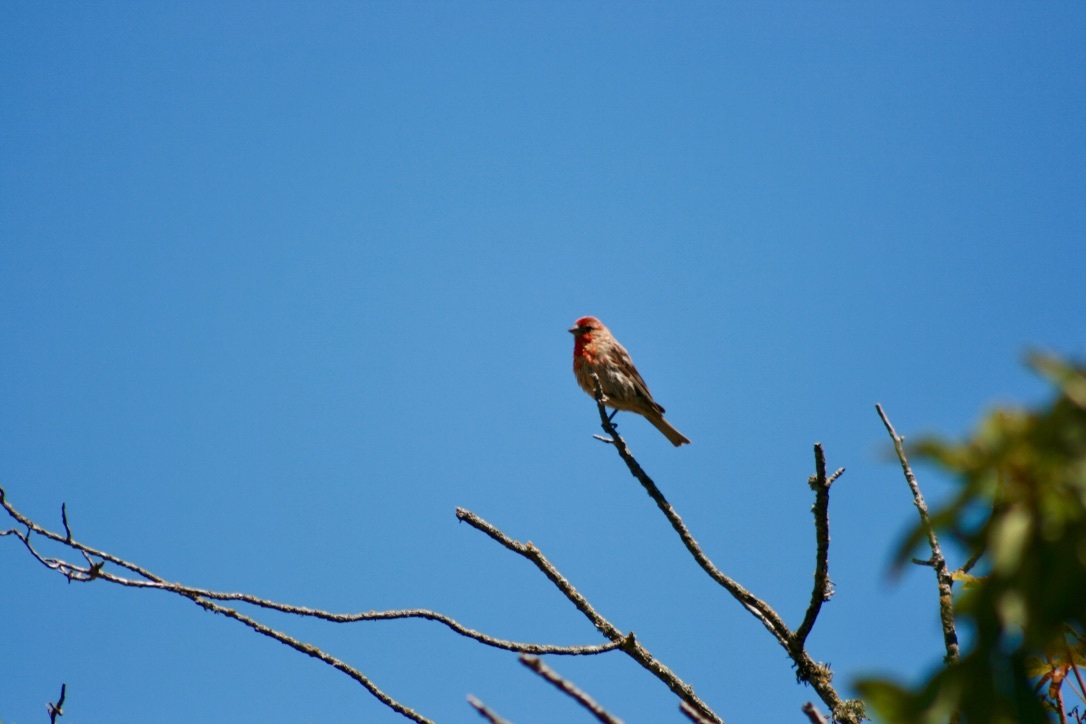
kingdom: Animalia
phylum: Chordata
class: Aves
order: Passeriformes
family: Fringillidae
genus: Haemorhous
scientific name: Haemorhous mexicanus
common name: House finch
